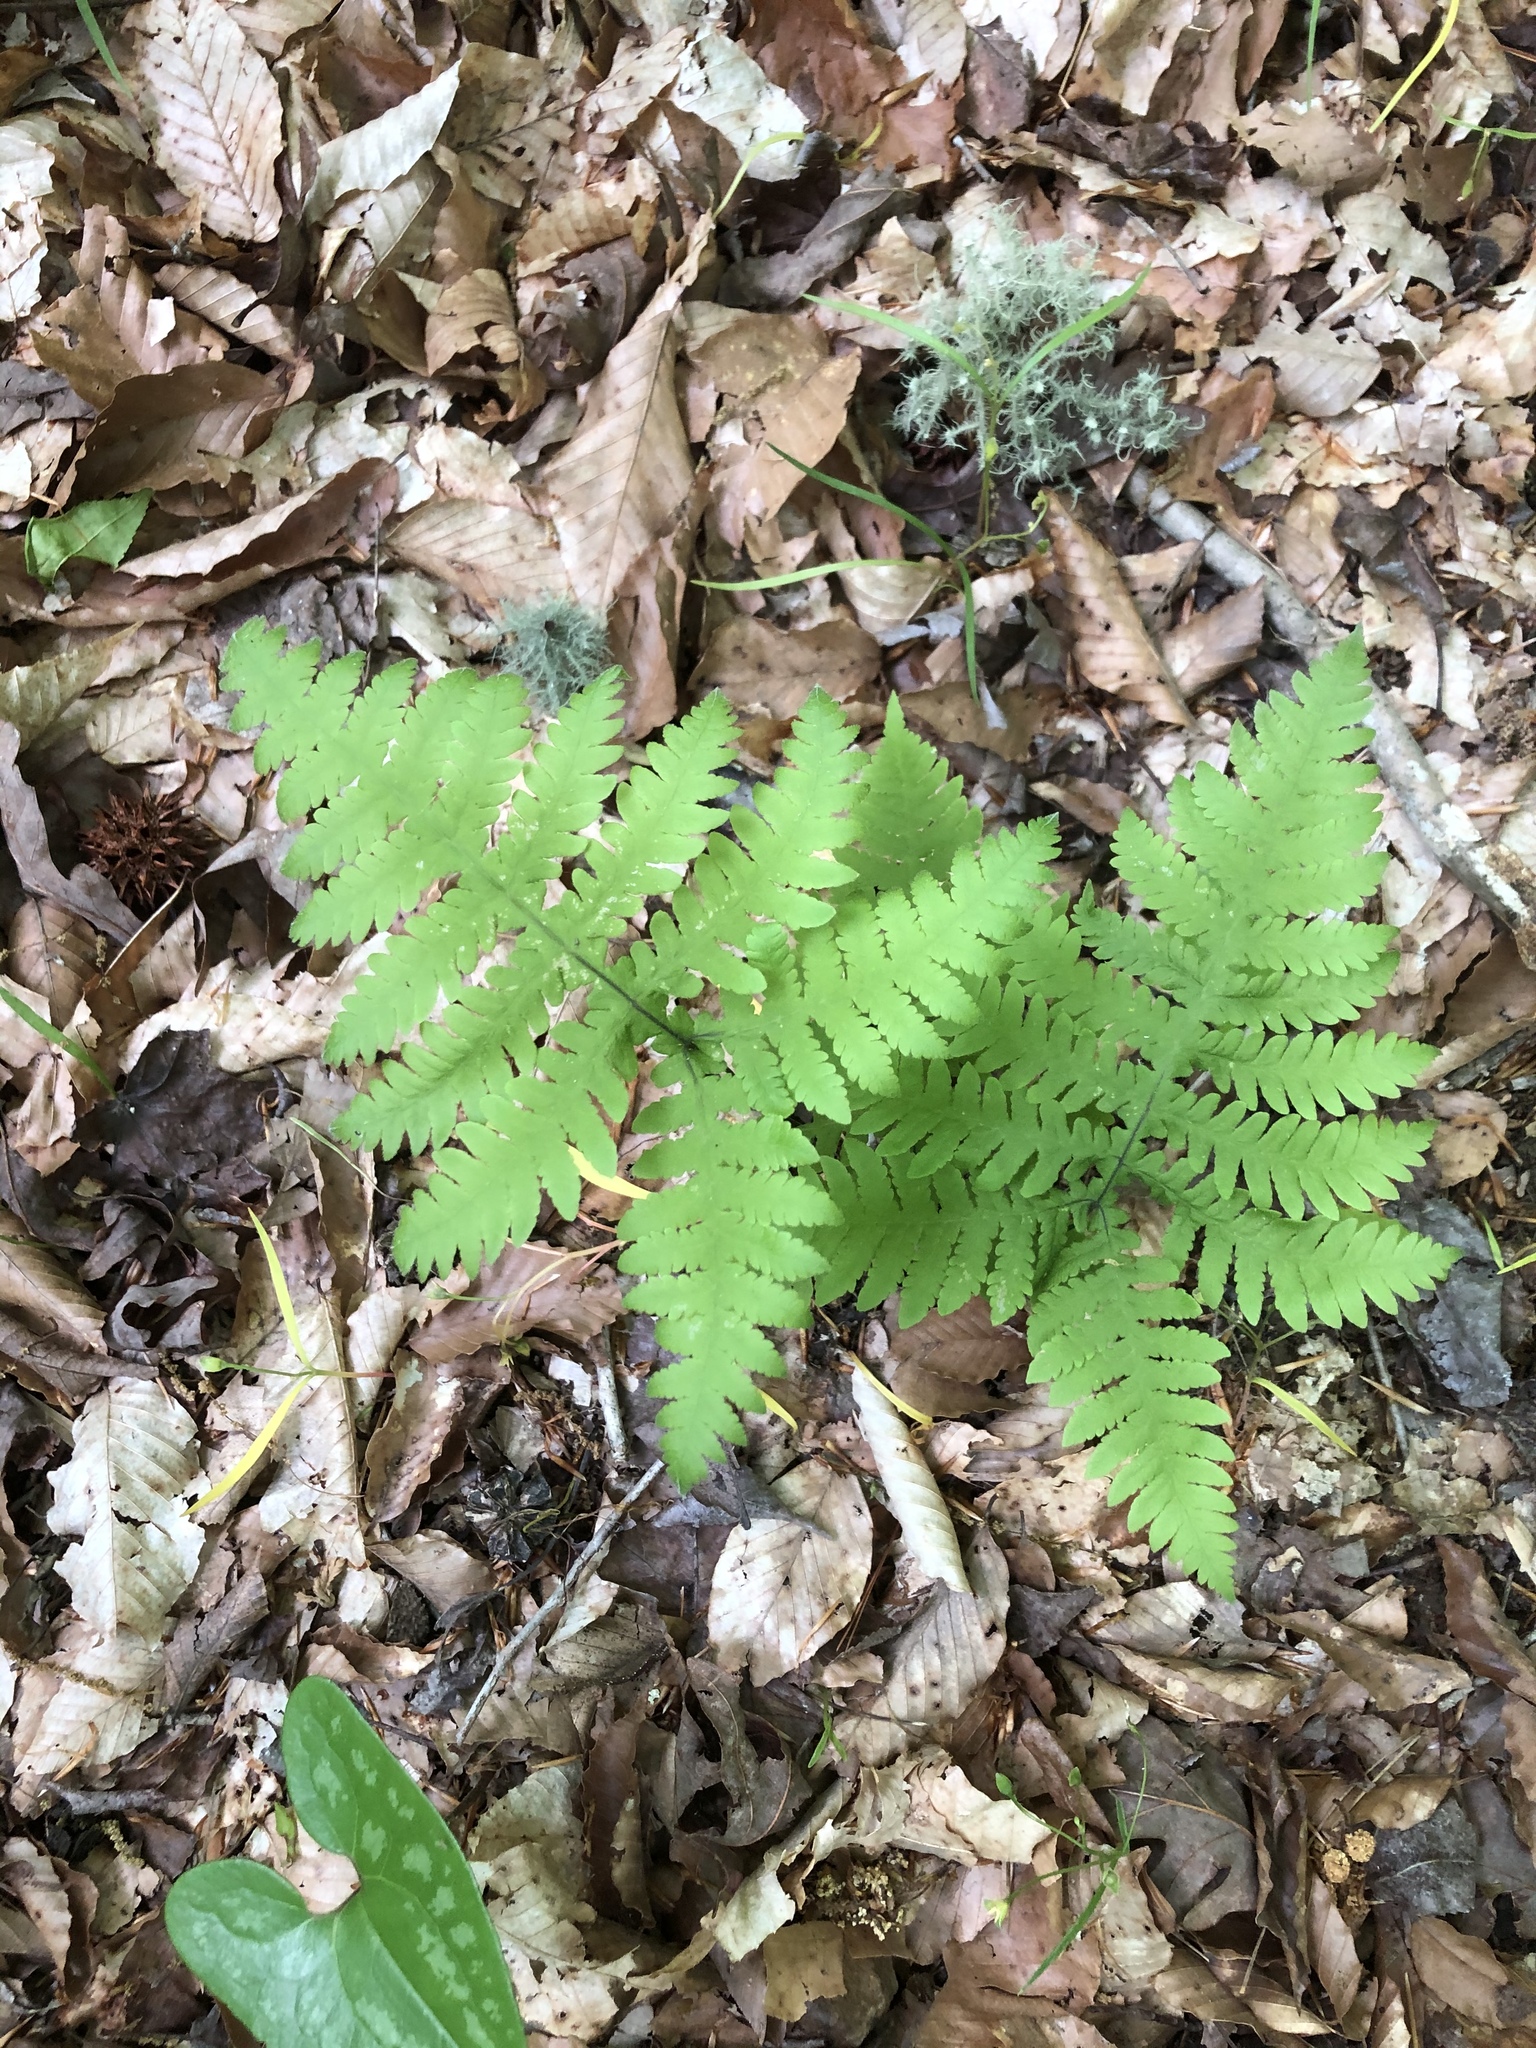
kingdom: Plantae
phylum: Tracheophyta
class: Polypodiopsida
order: Polypodiales
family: Thelypteridaceae
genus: Phegopteris
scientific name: Phegopteris hexagonoptera
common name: Broad beech fern
